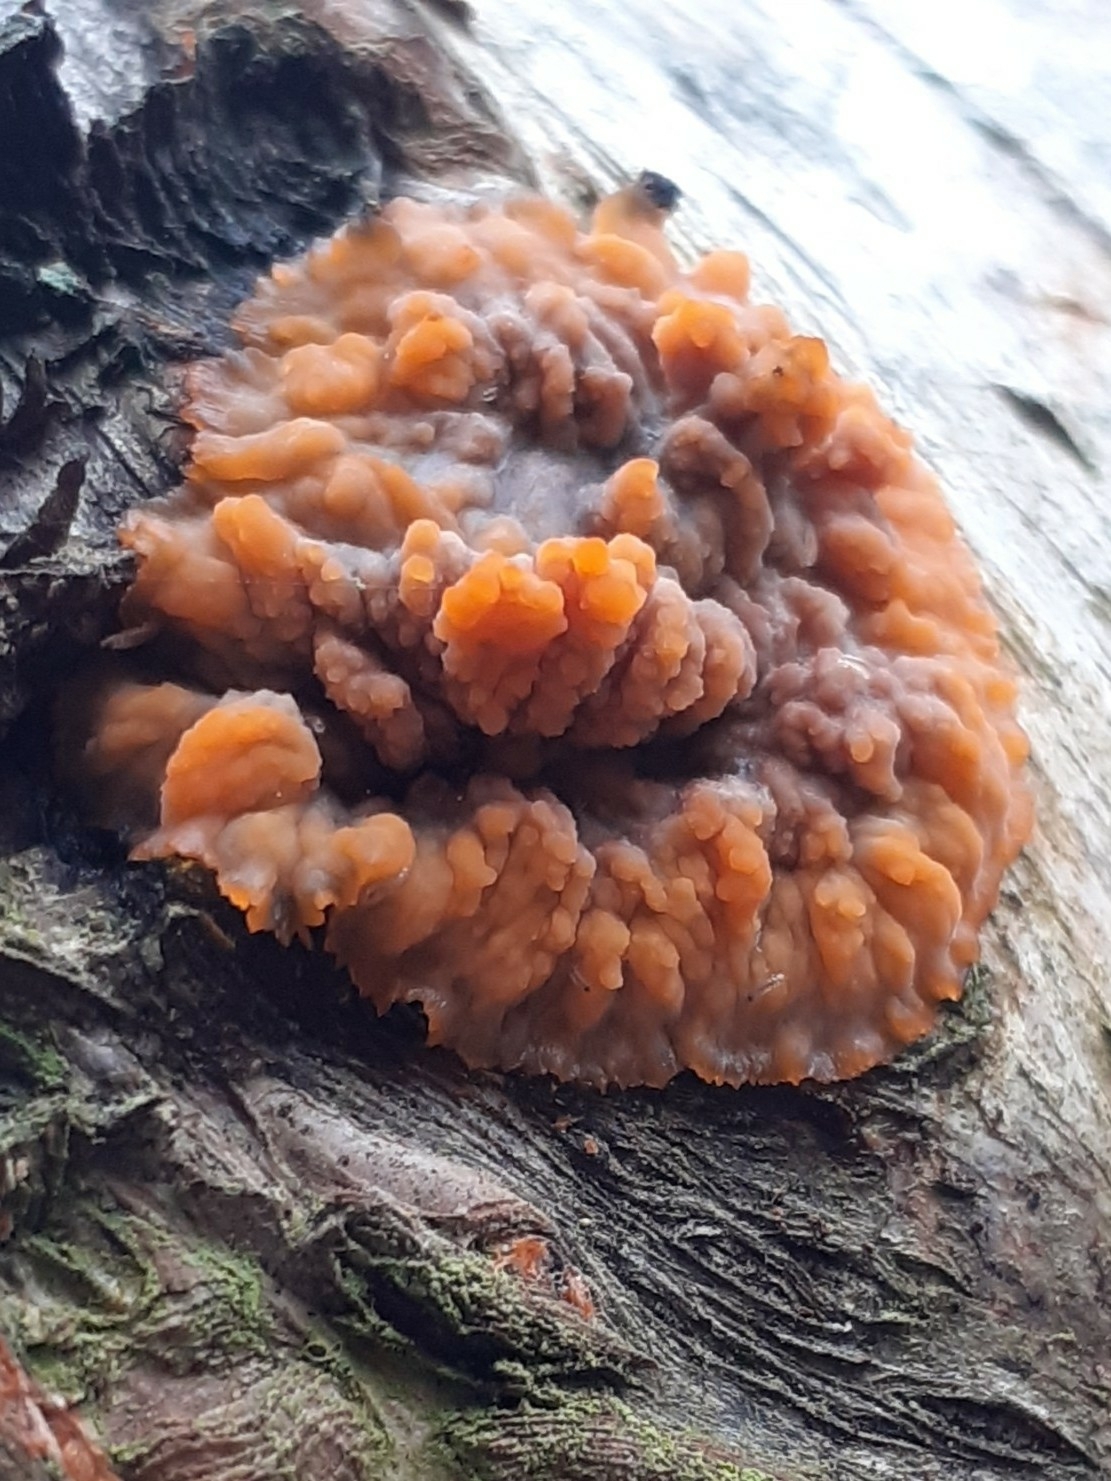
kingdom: Fungi
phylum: Basidiomycota
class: Agaricomycetes
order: Polyporales
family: Meruliaceae
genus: Phlebia
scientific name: Phlebia radiata
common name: Wrinkled crust
